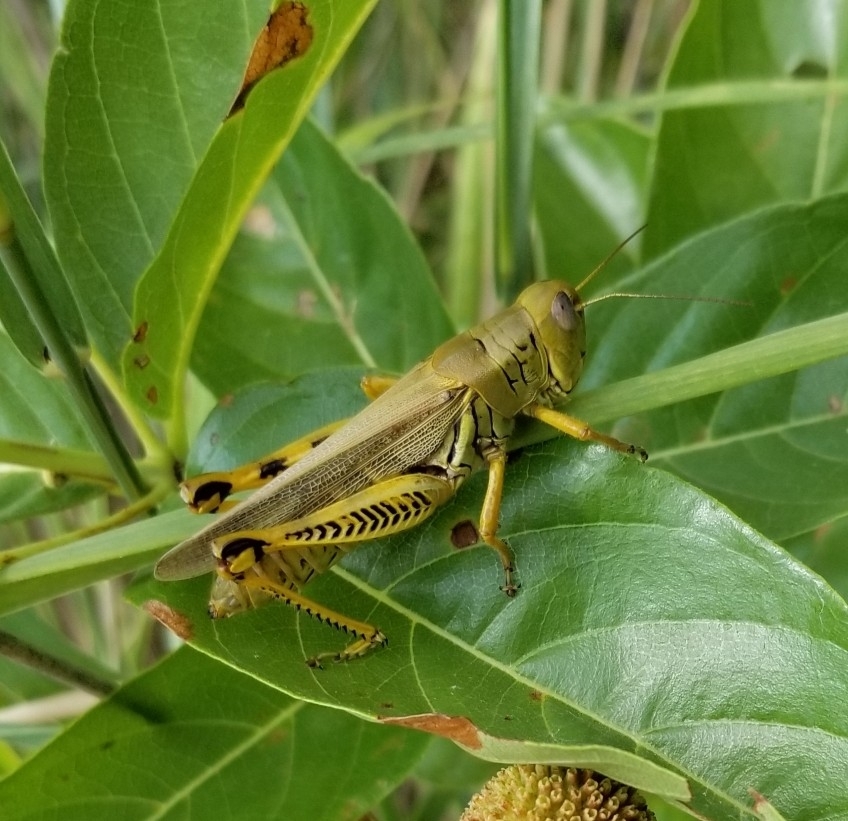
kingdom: Animalia
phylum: Arthropoda
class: Insecta
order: Orthoptera
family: Acrididae
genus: Melanoplus
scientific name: Melanoplus differentialis
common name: Differential grasshopper
